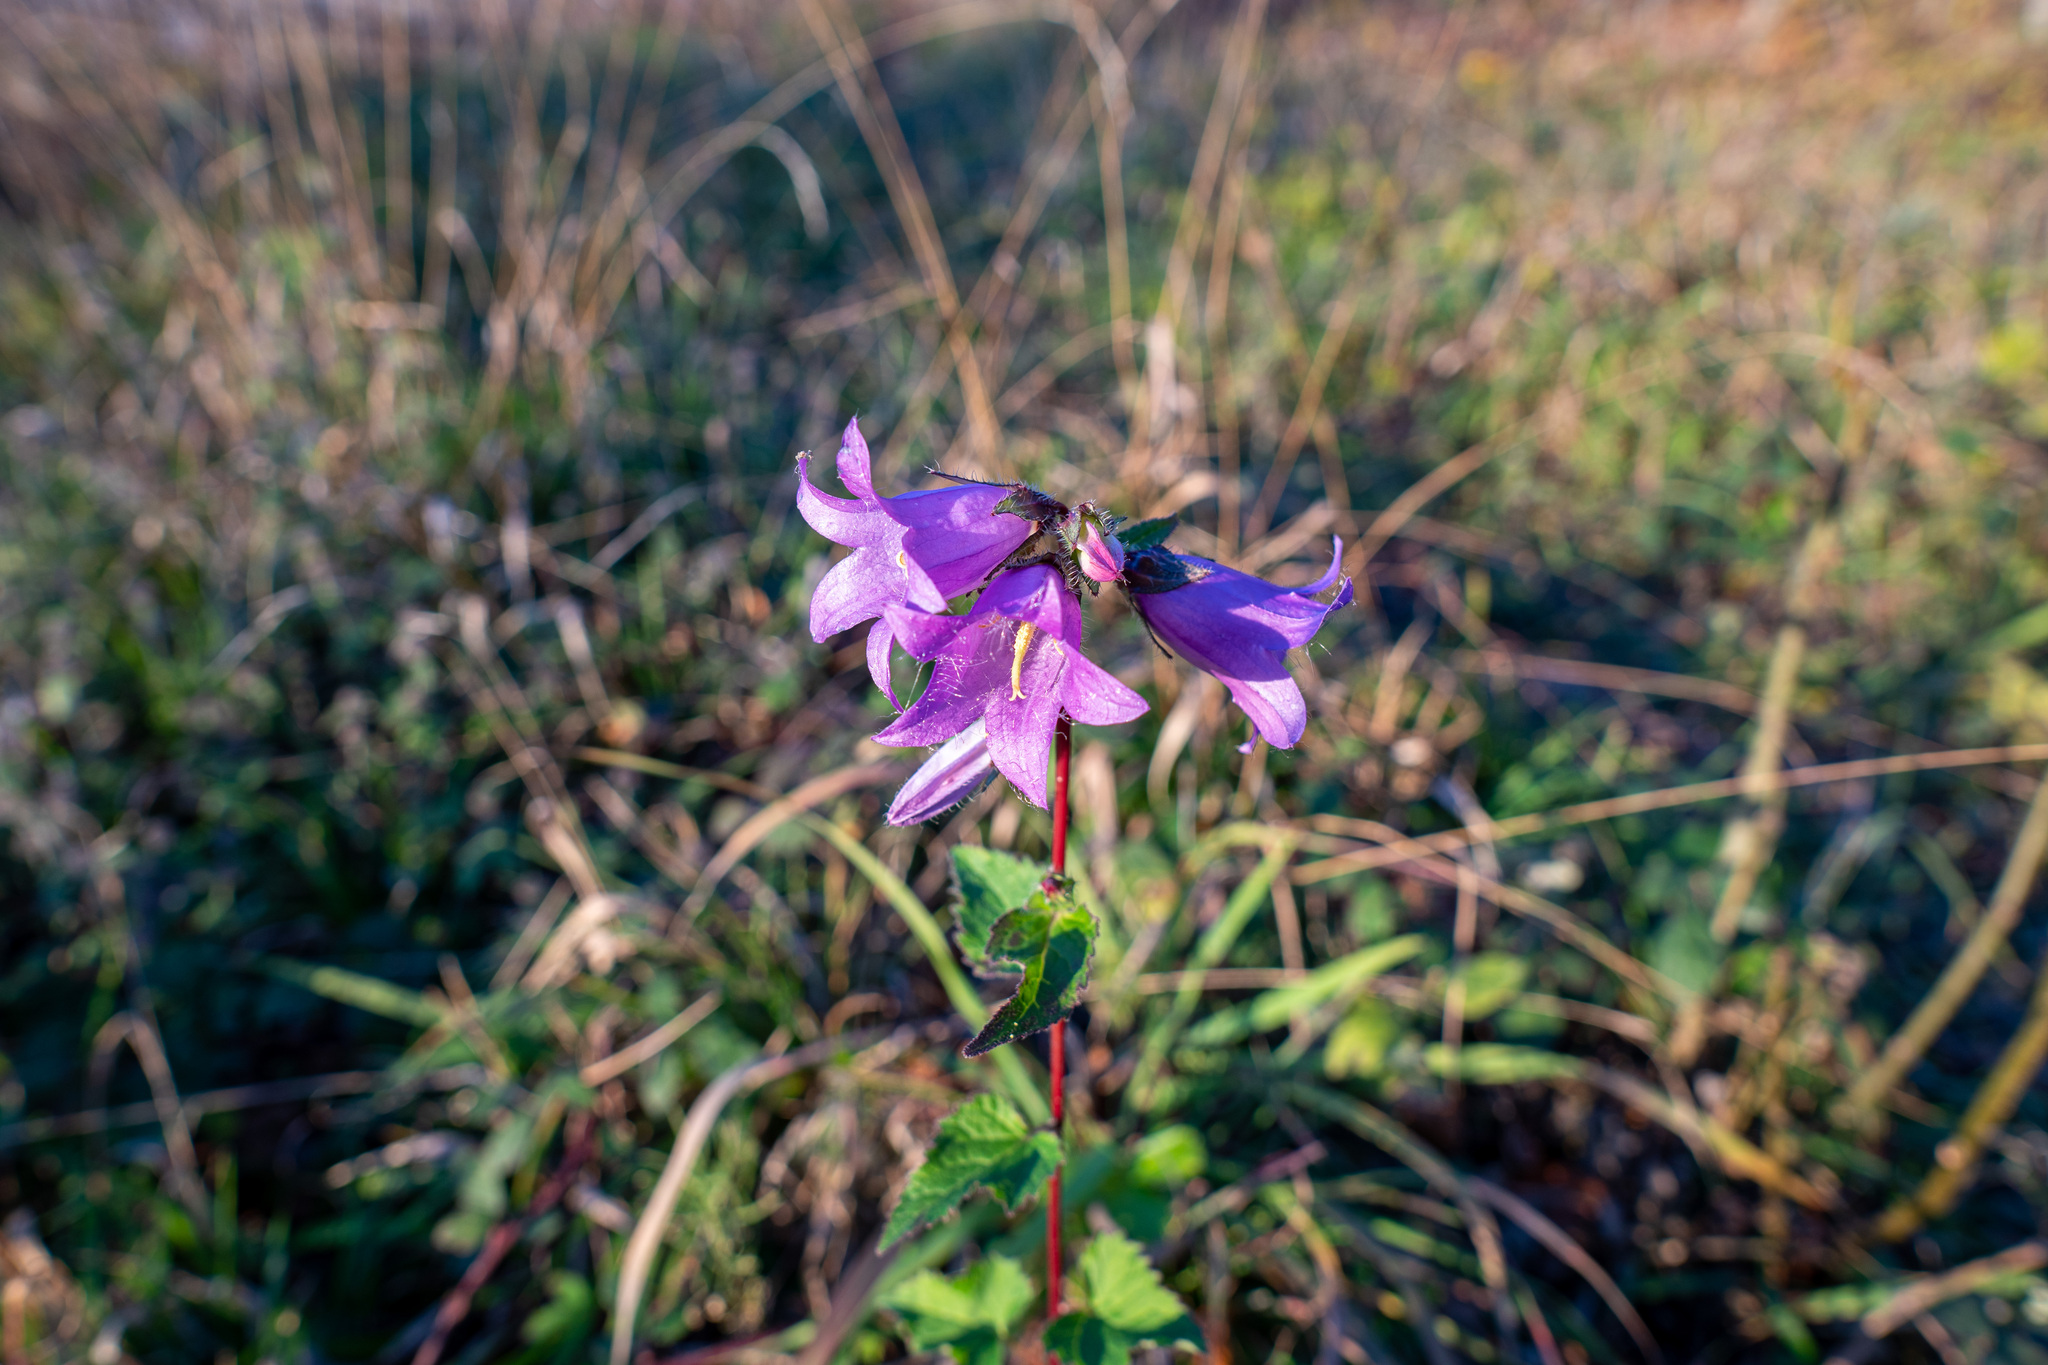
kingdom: Plantae
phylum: Tracheophyta
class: Magnoliopsida
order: Asterales
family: Campanulaceae
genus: Campanula
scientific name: Campanula trachelium
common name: Nettle-leaved bellflower
